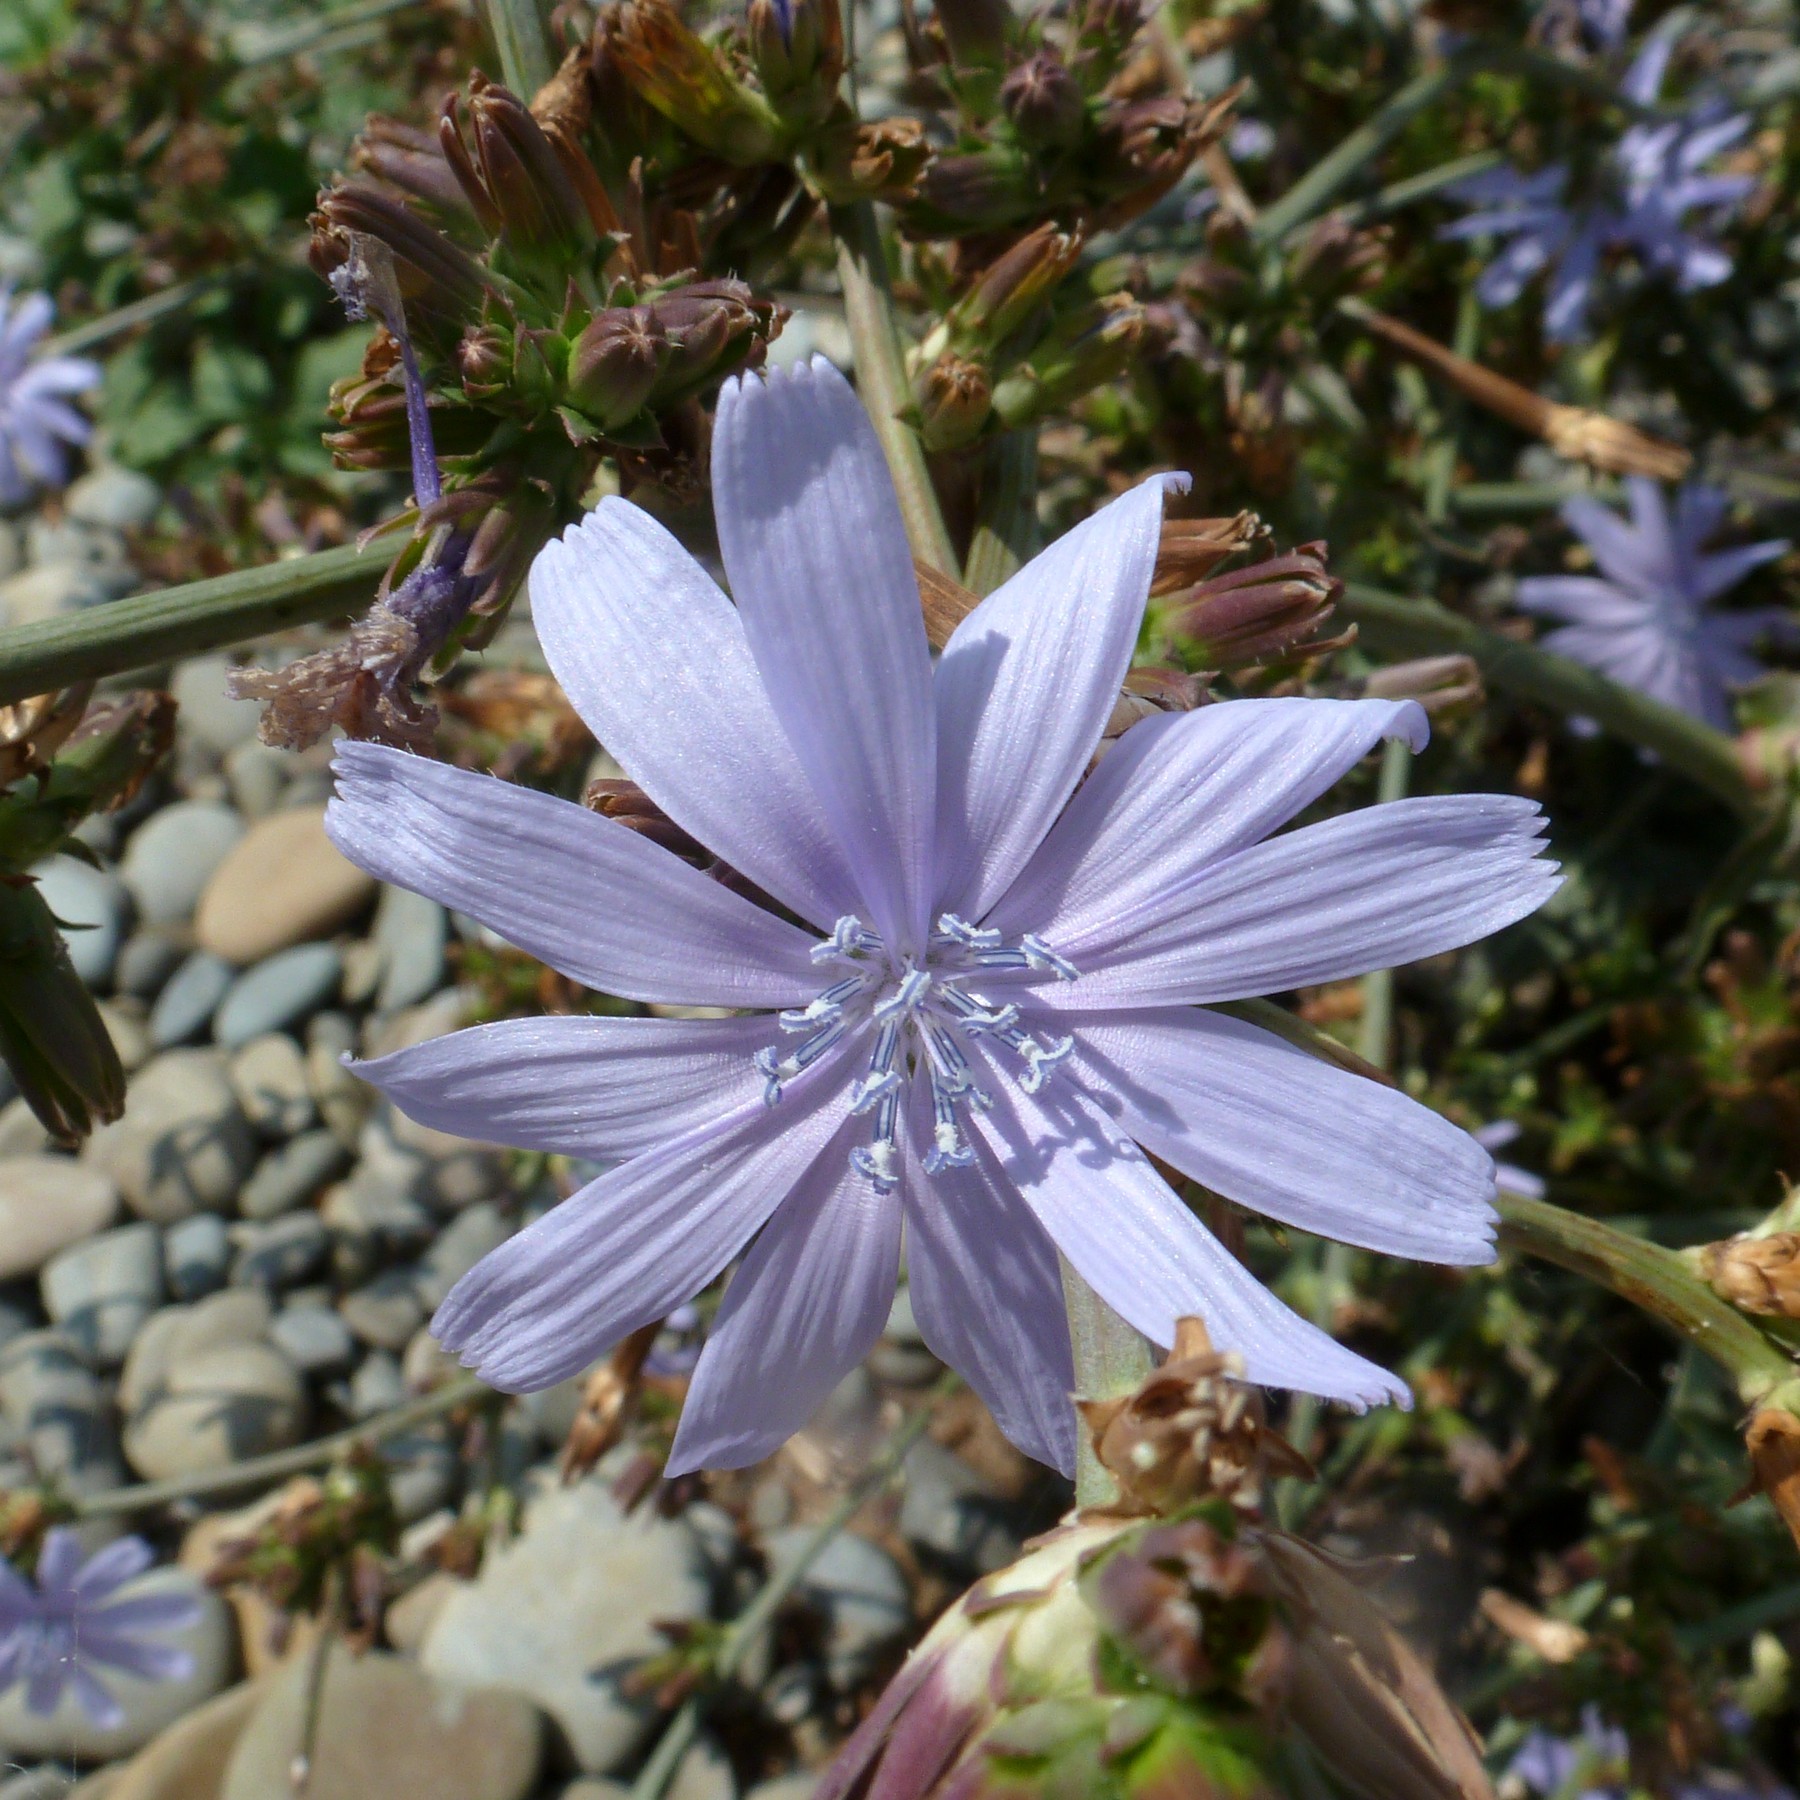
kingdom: Plantae
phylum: Tracheophyta
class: Magnoliopsida
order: Asterales
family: Asteraceae
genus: Cichorium
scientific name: Cichorium intybus
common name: Chicory
